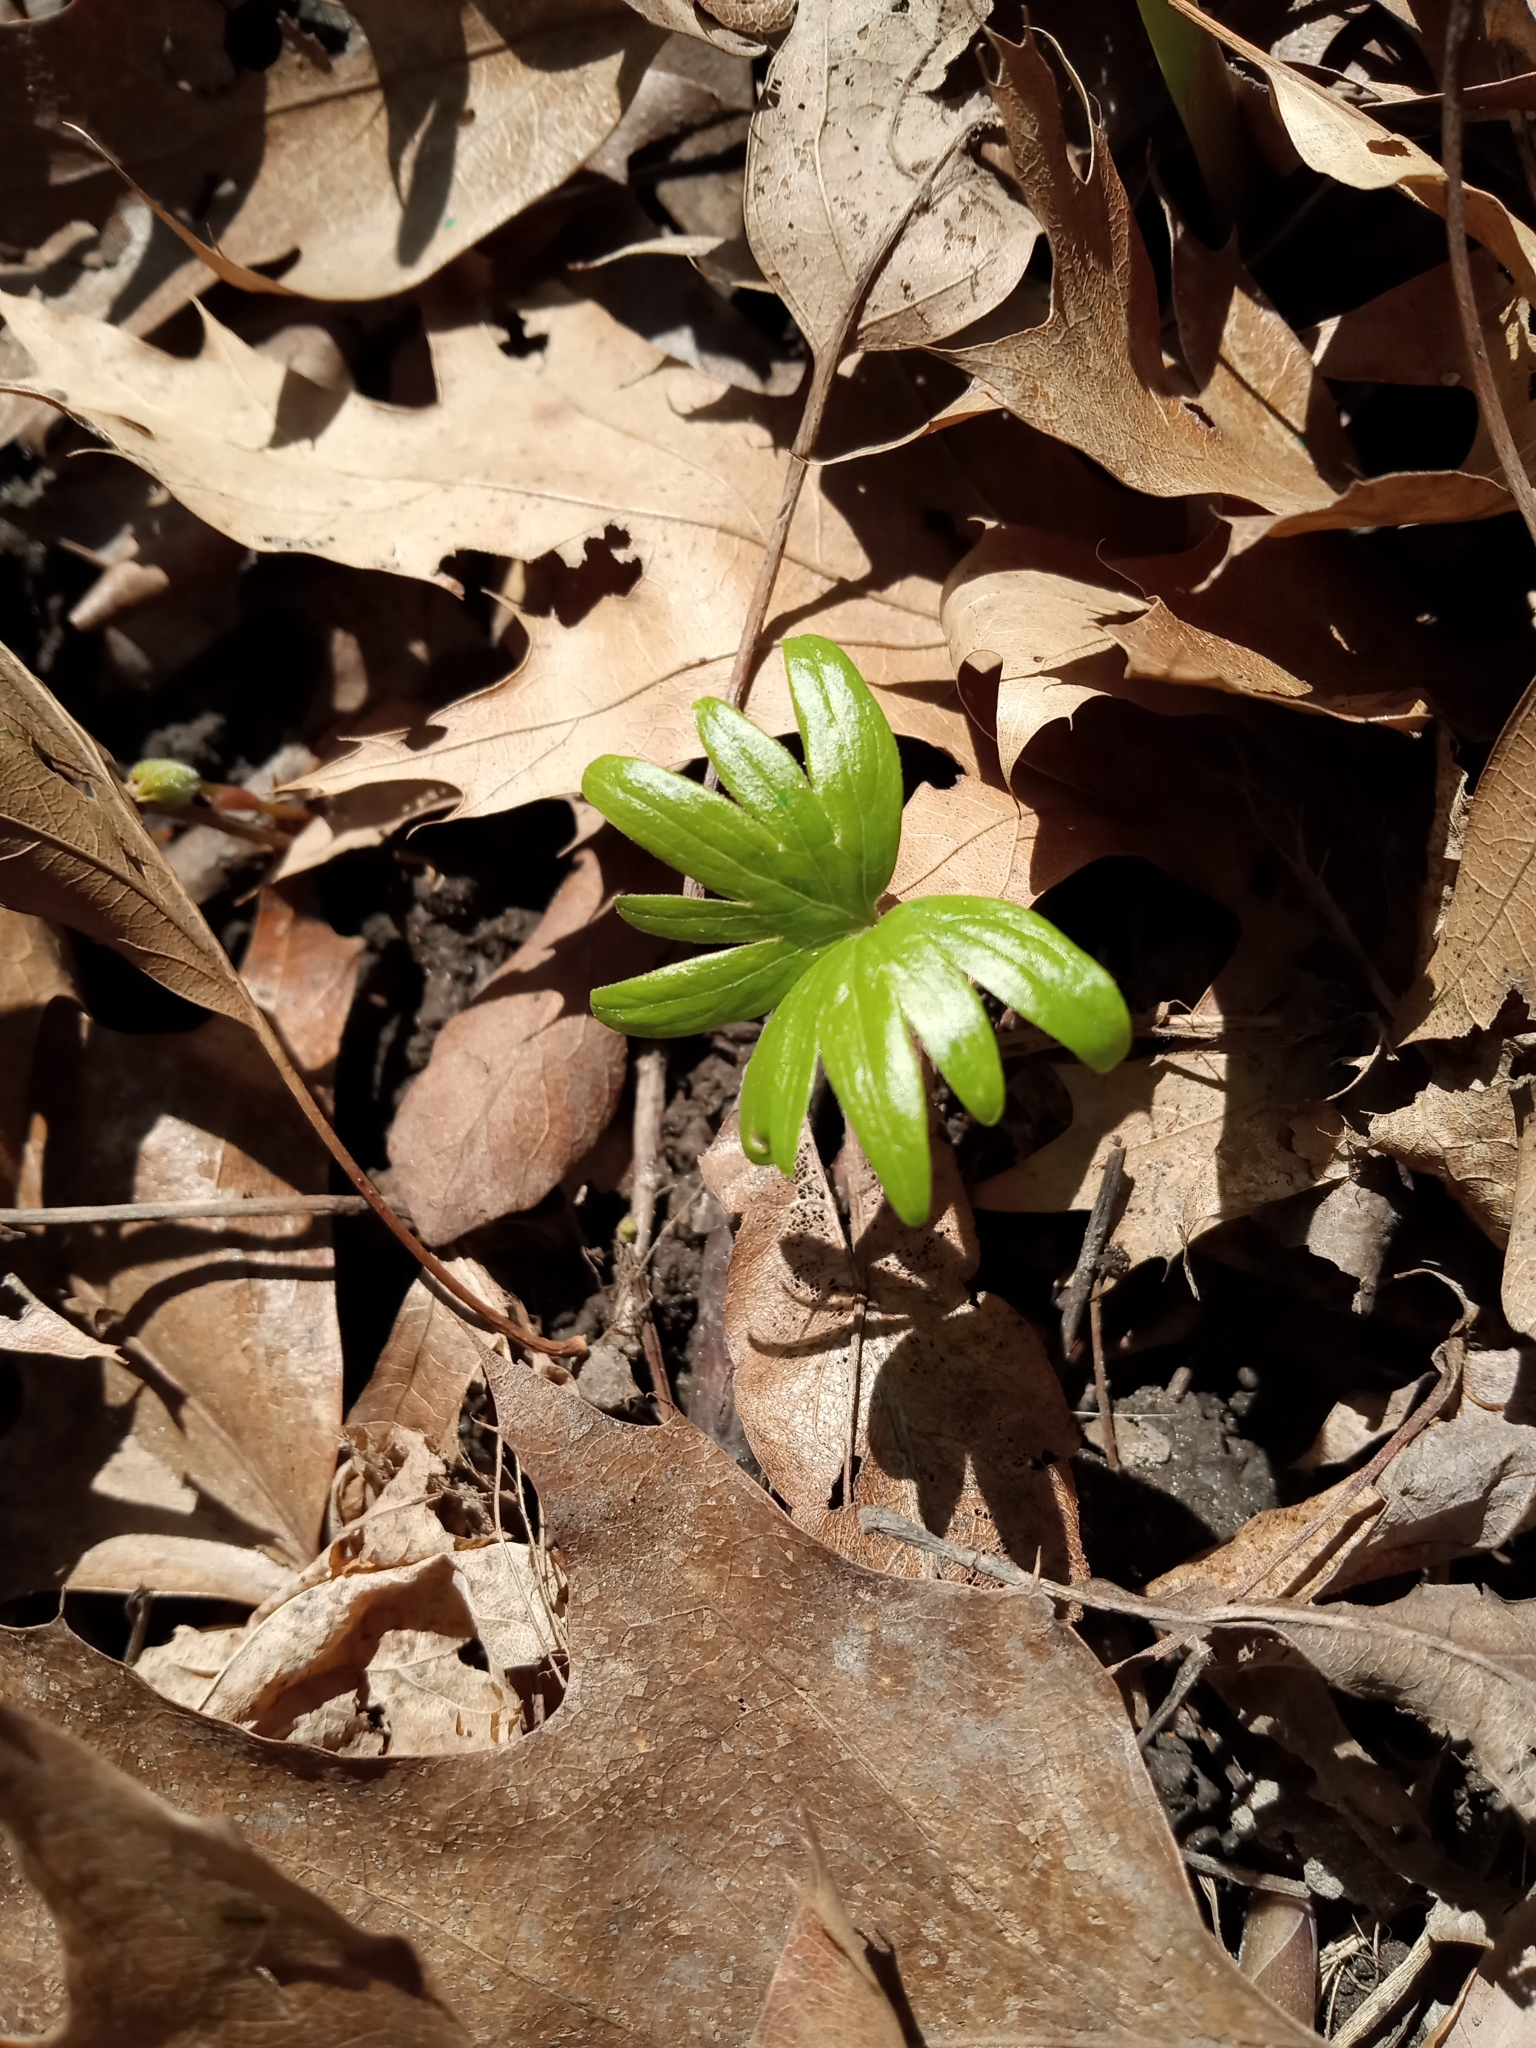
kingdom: Plantae
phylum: Tracheophyta
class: Magnoliopsida
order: Malvales
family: Malvaceae
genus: Tilia
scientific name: Tilia americana
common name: Basswood
